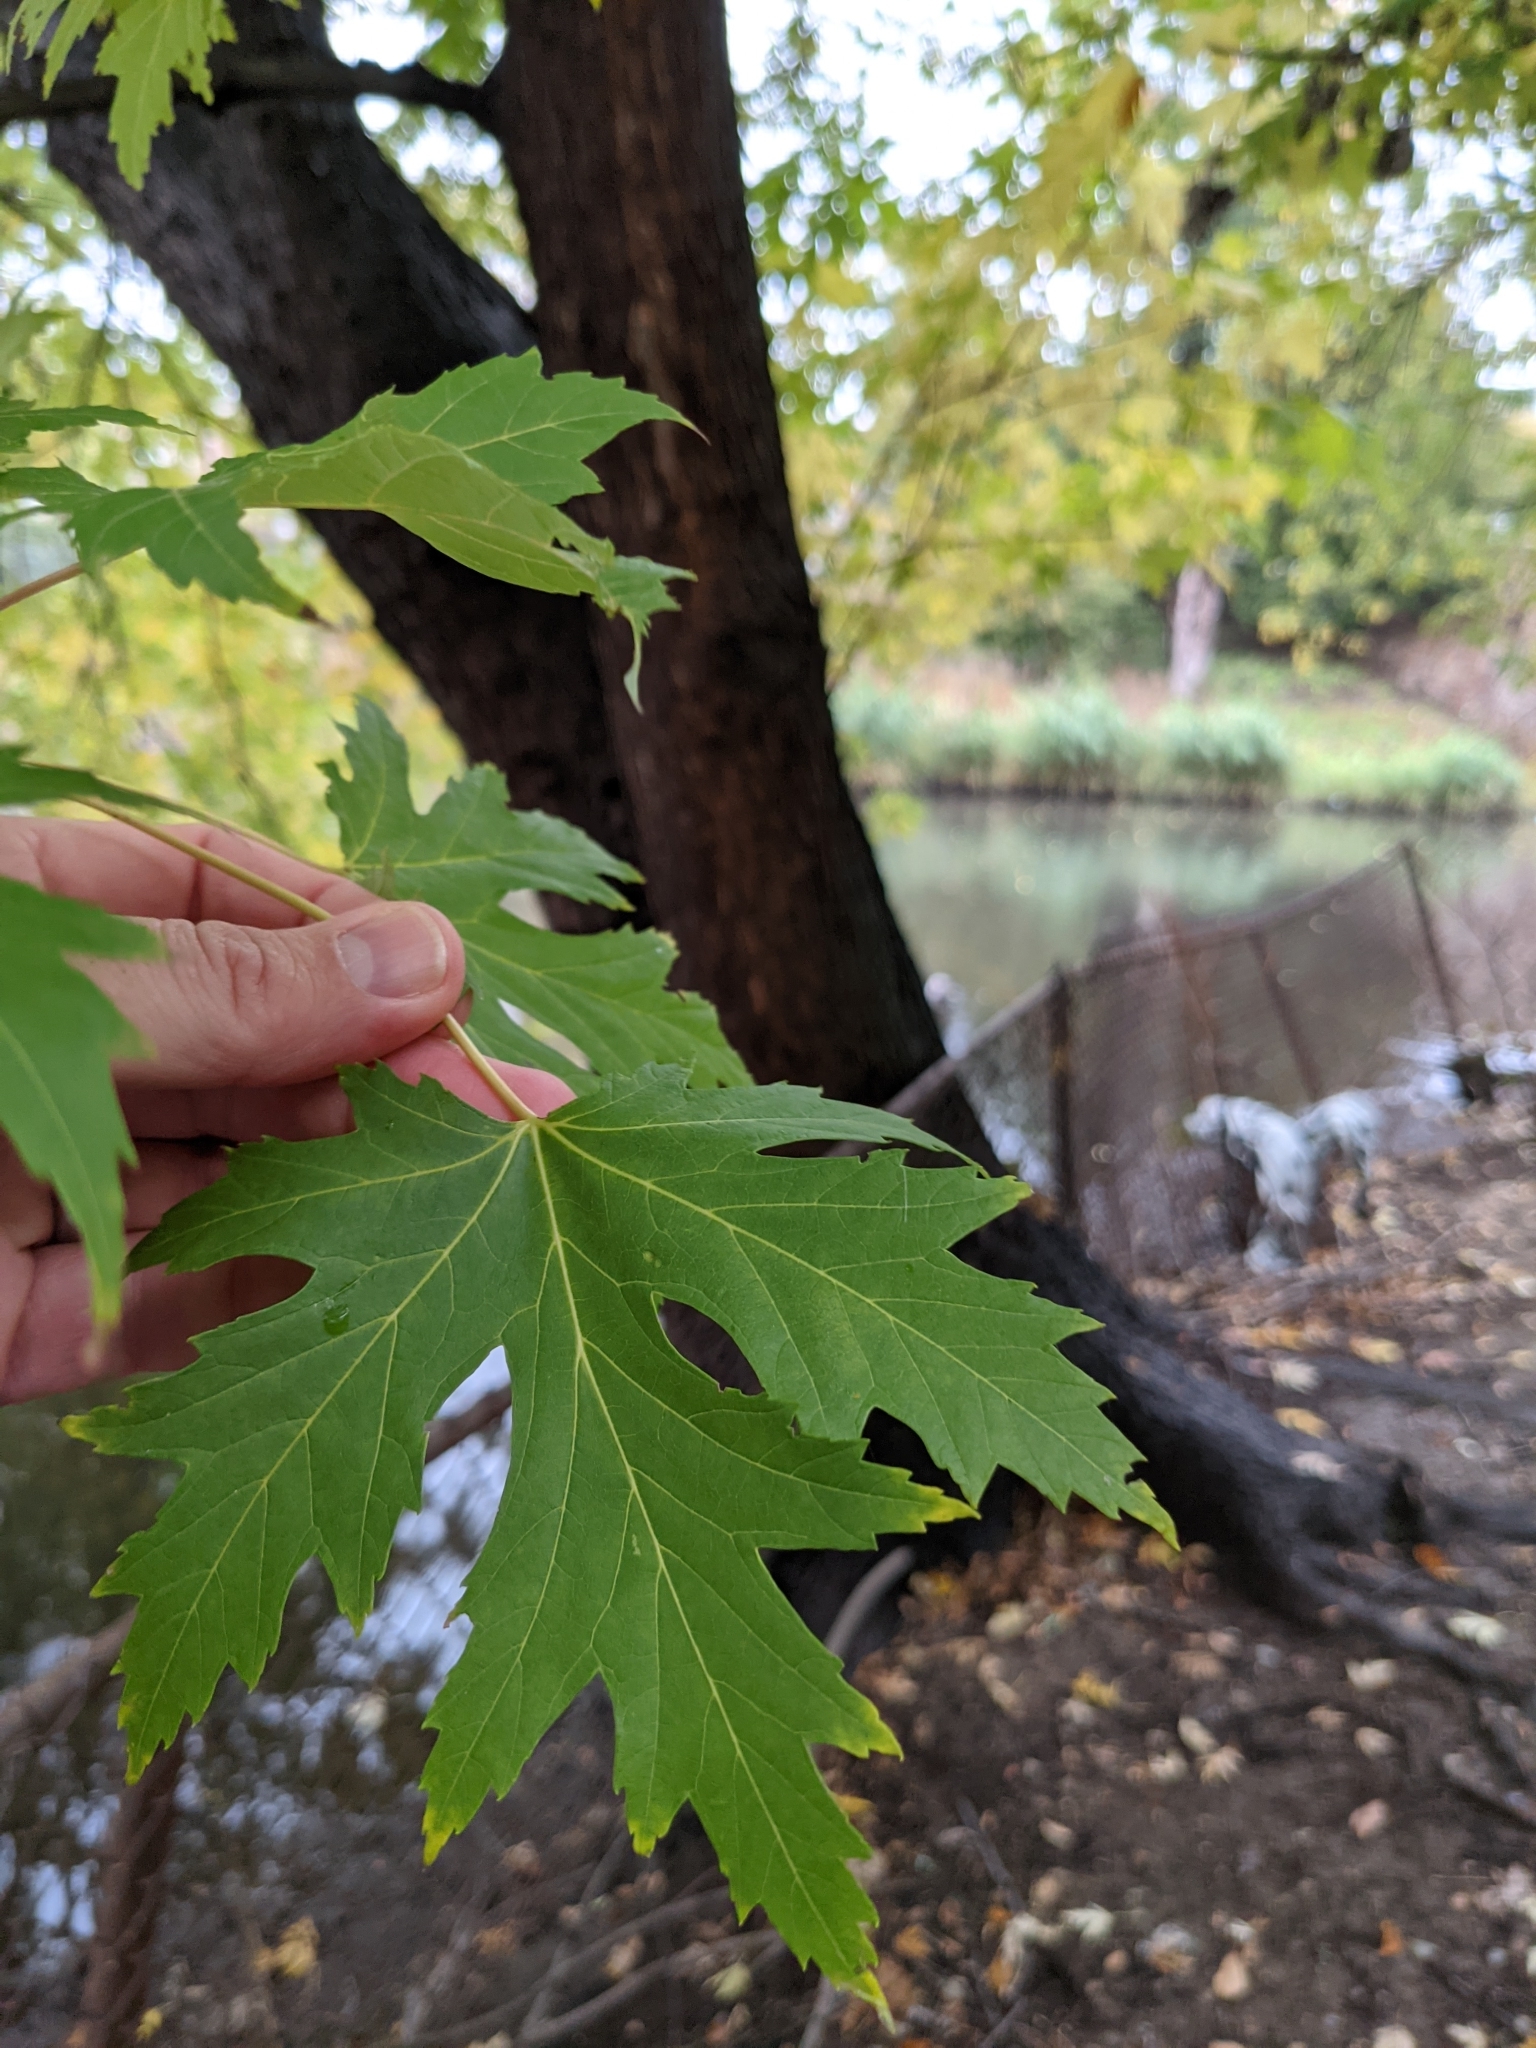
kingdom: Plantae
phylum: Tracheophyta
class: Magnoliopsida
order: Sapindales
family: Sapindaceae
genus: Acer
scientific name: Acer saccharinum
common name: Silver maple
